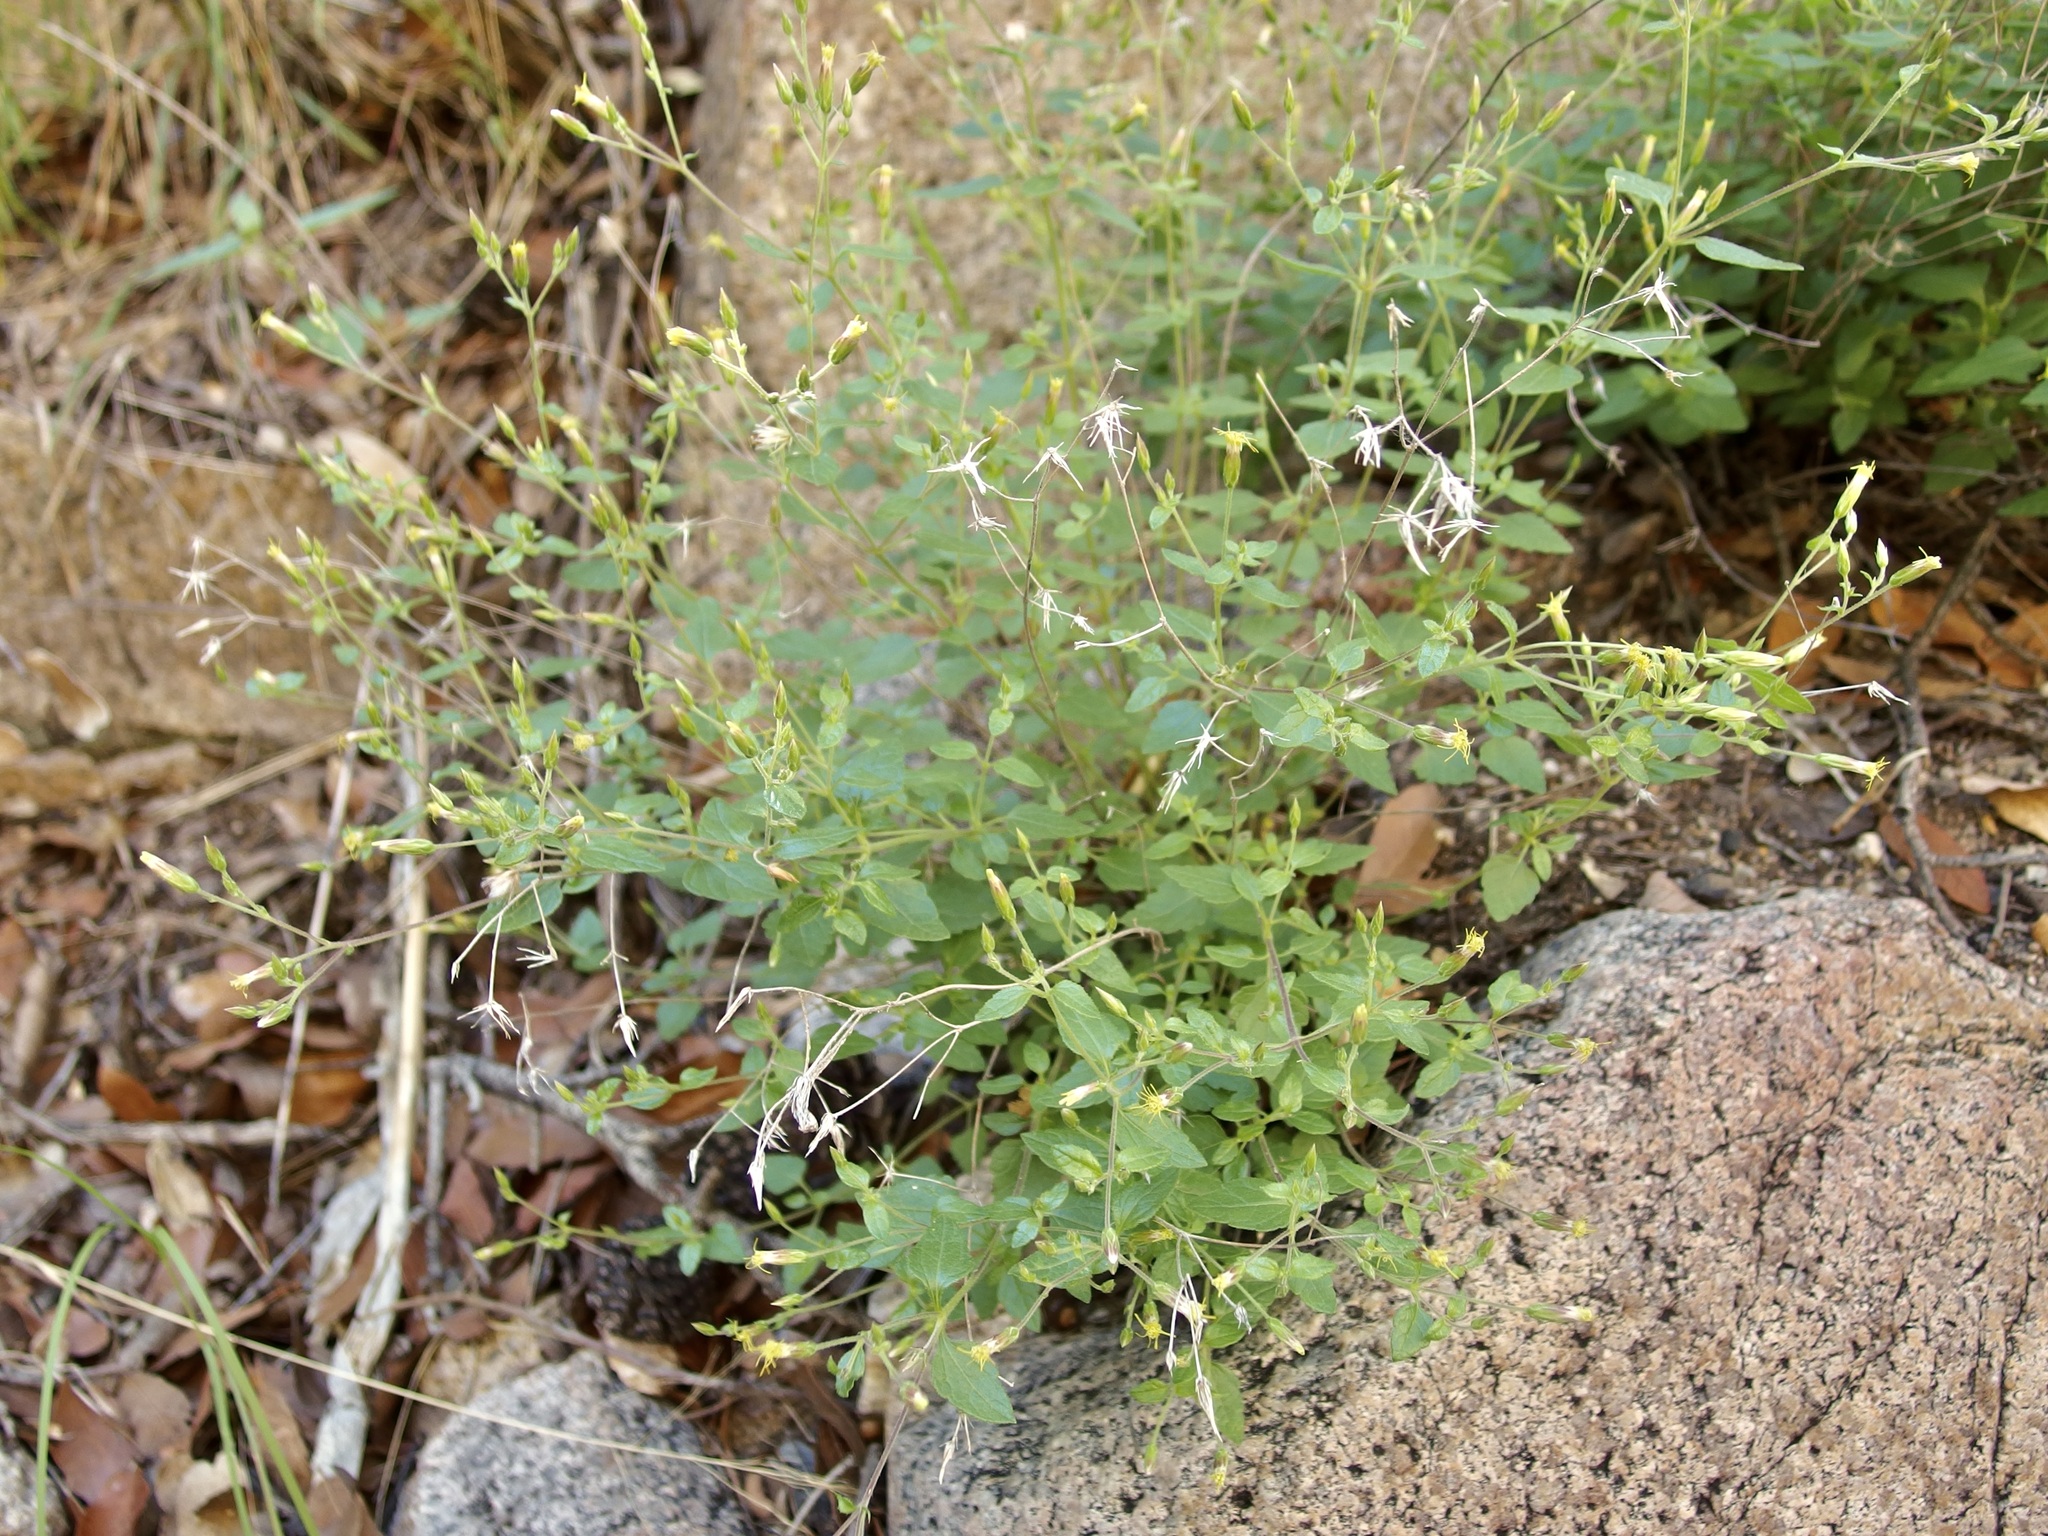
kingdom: Plantae
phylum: Tracheophyta
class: Magnoliopsida
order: Asterales
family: Asteraceae
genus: Brickellia
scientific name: Brickellia parvula
